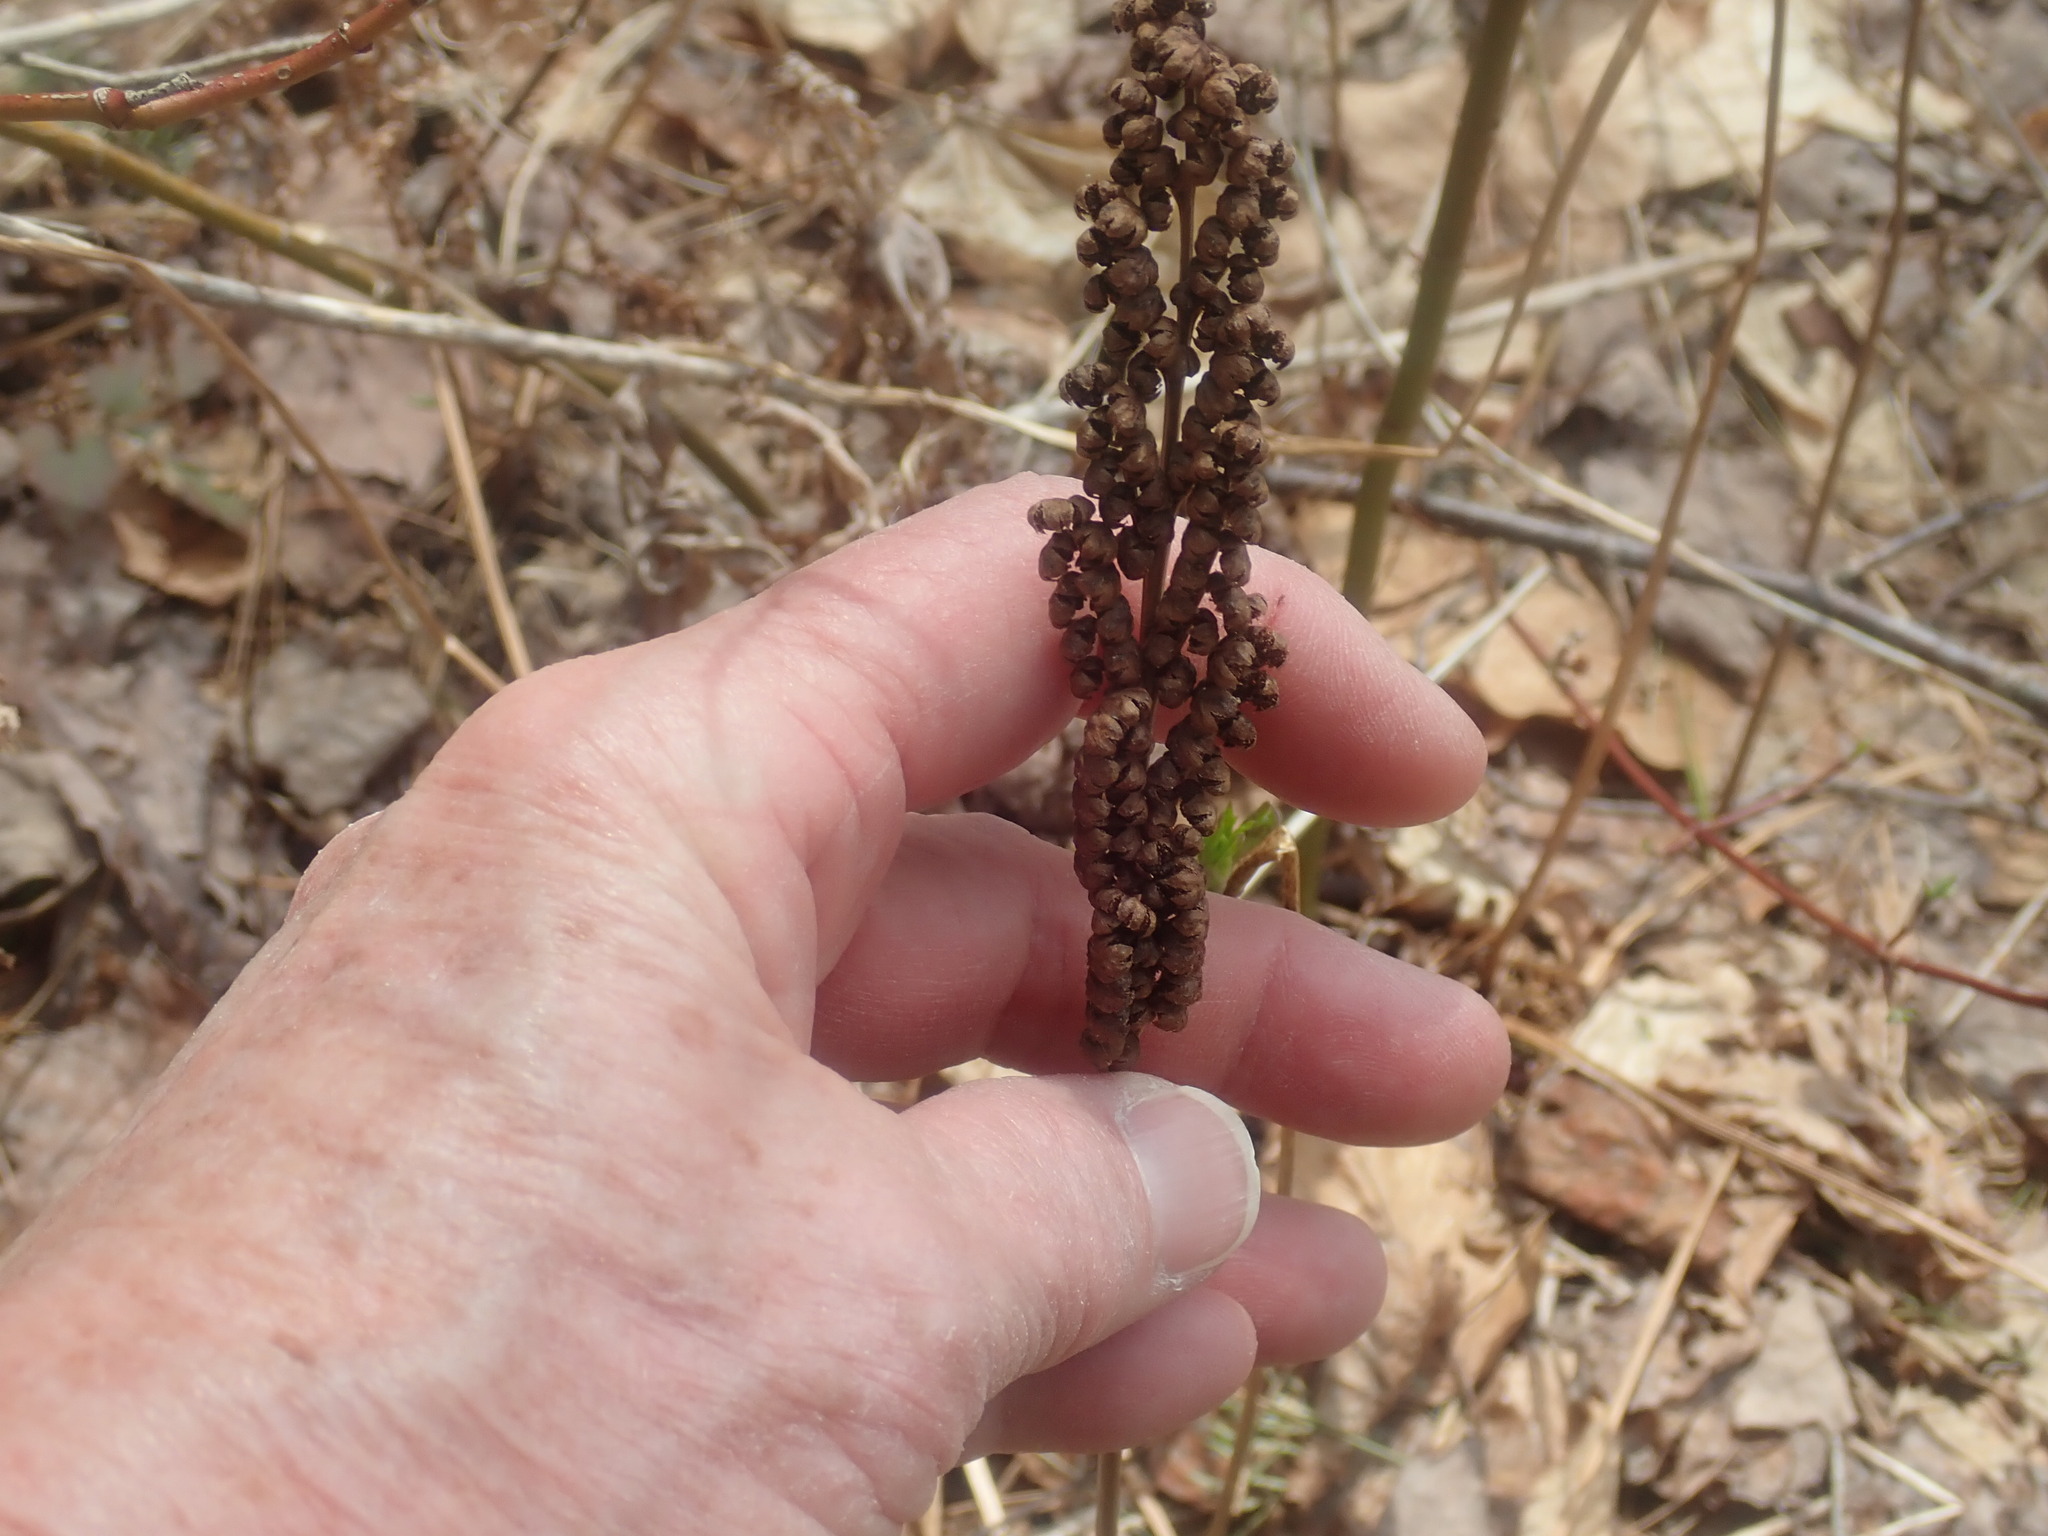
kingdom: Plantae
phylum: Tracheophyta
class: Polypodiopsida
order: Polypodiales
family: Onocleaceae
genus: Onoclea
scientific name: Onoclea sensibilis
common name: Sensitive fern
